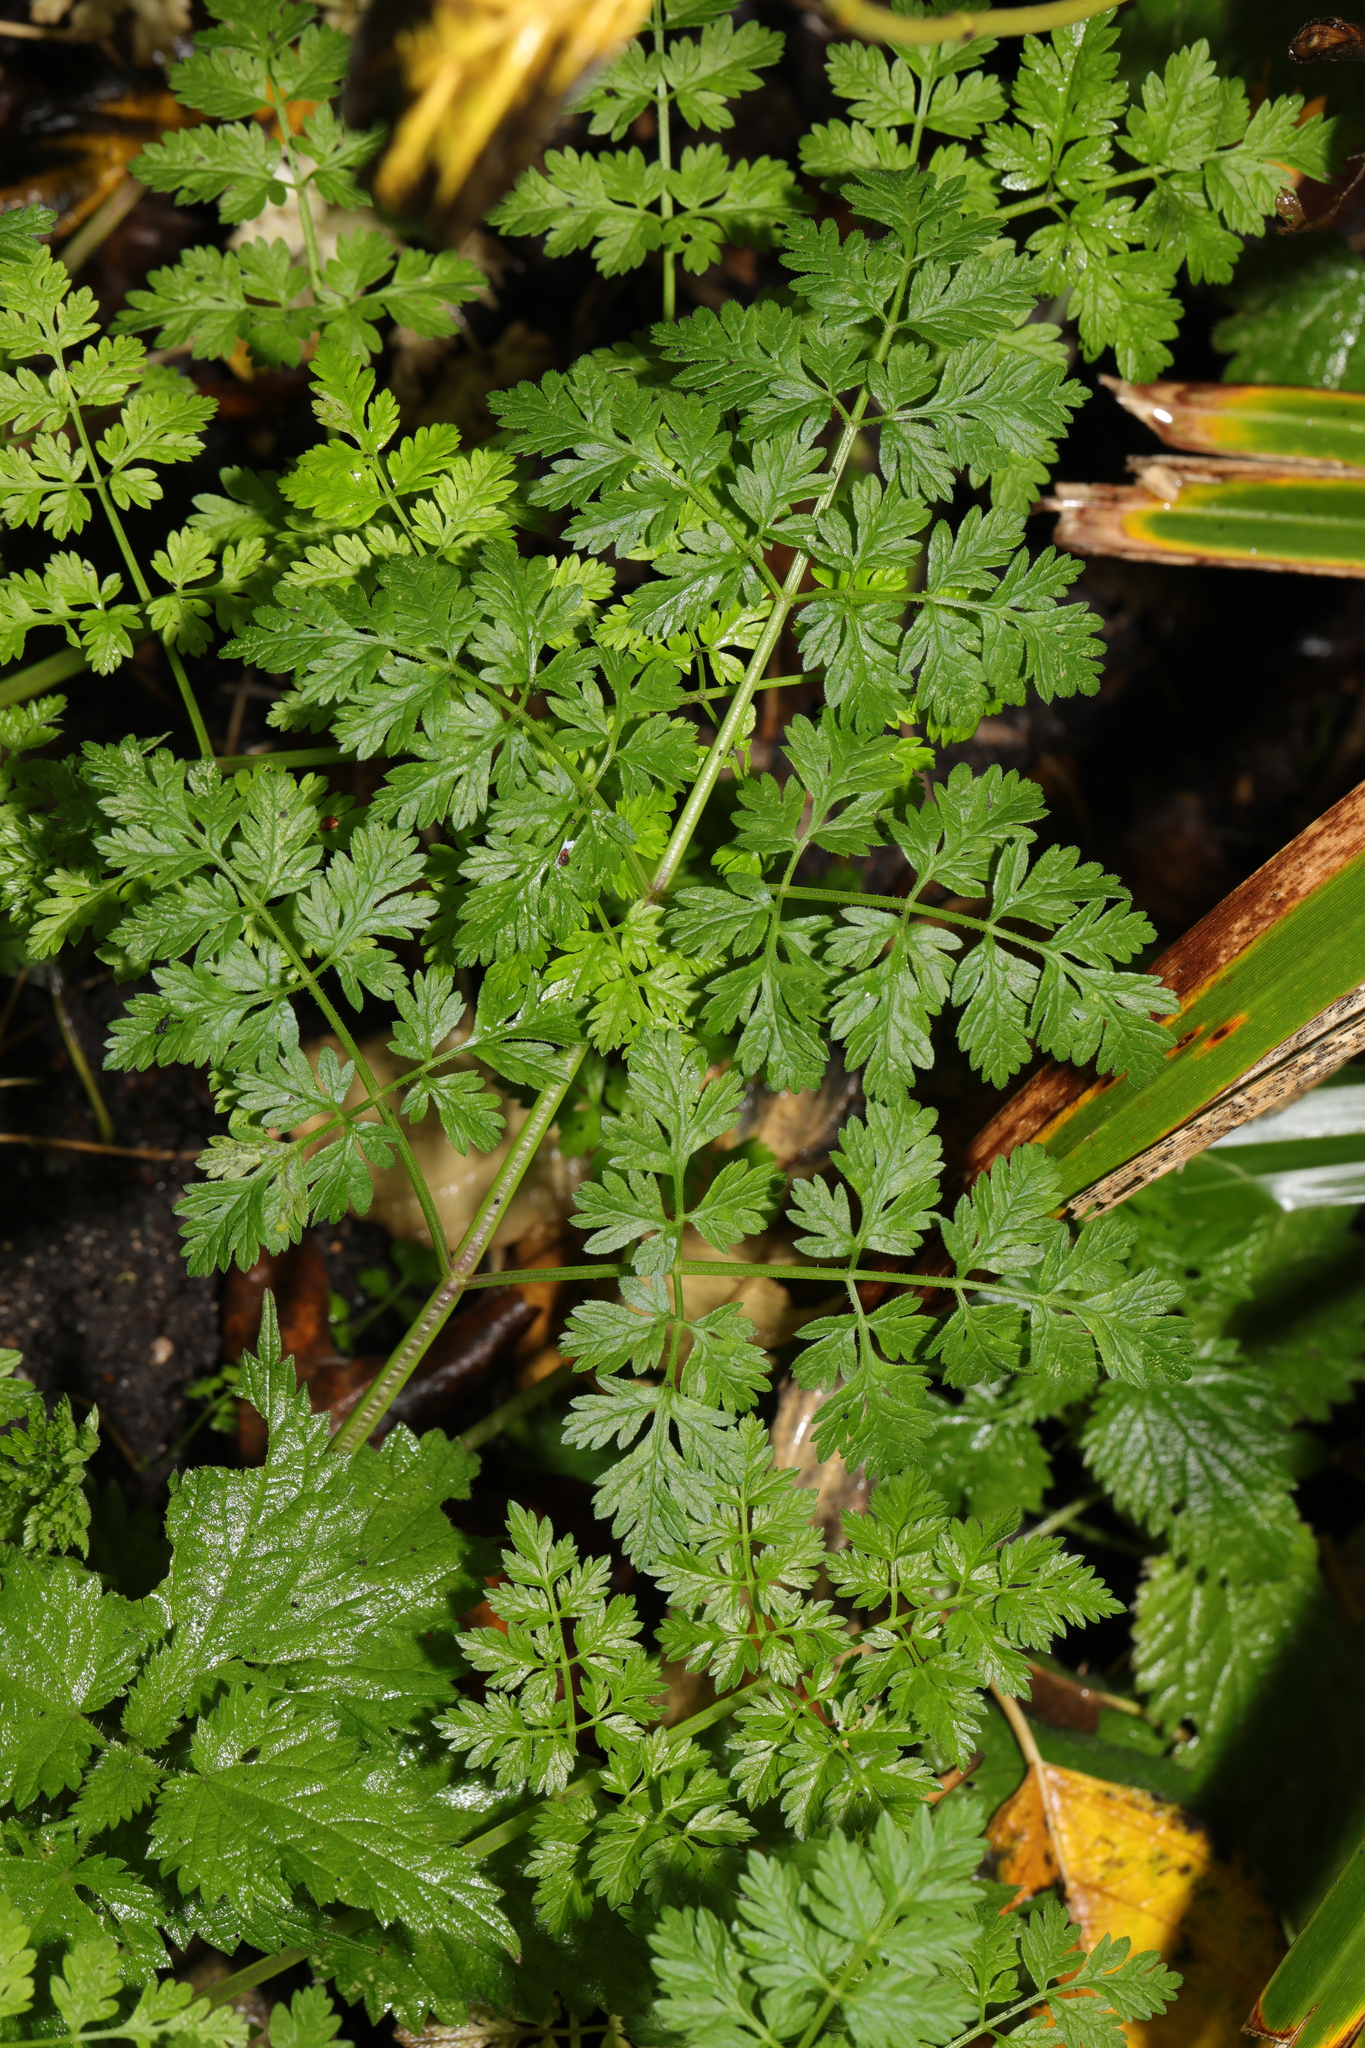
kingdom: Plantae
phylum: Tracheophyta
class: Magnoliopsida
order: Apiales
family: Apiaceae
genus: Anthriscus
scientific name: Anthriscus sylvestris
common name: Cow parsley
